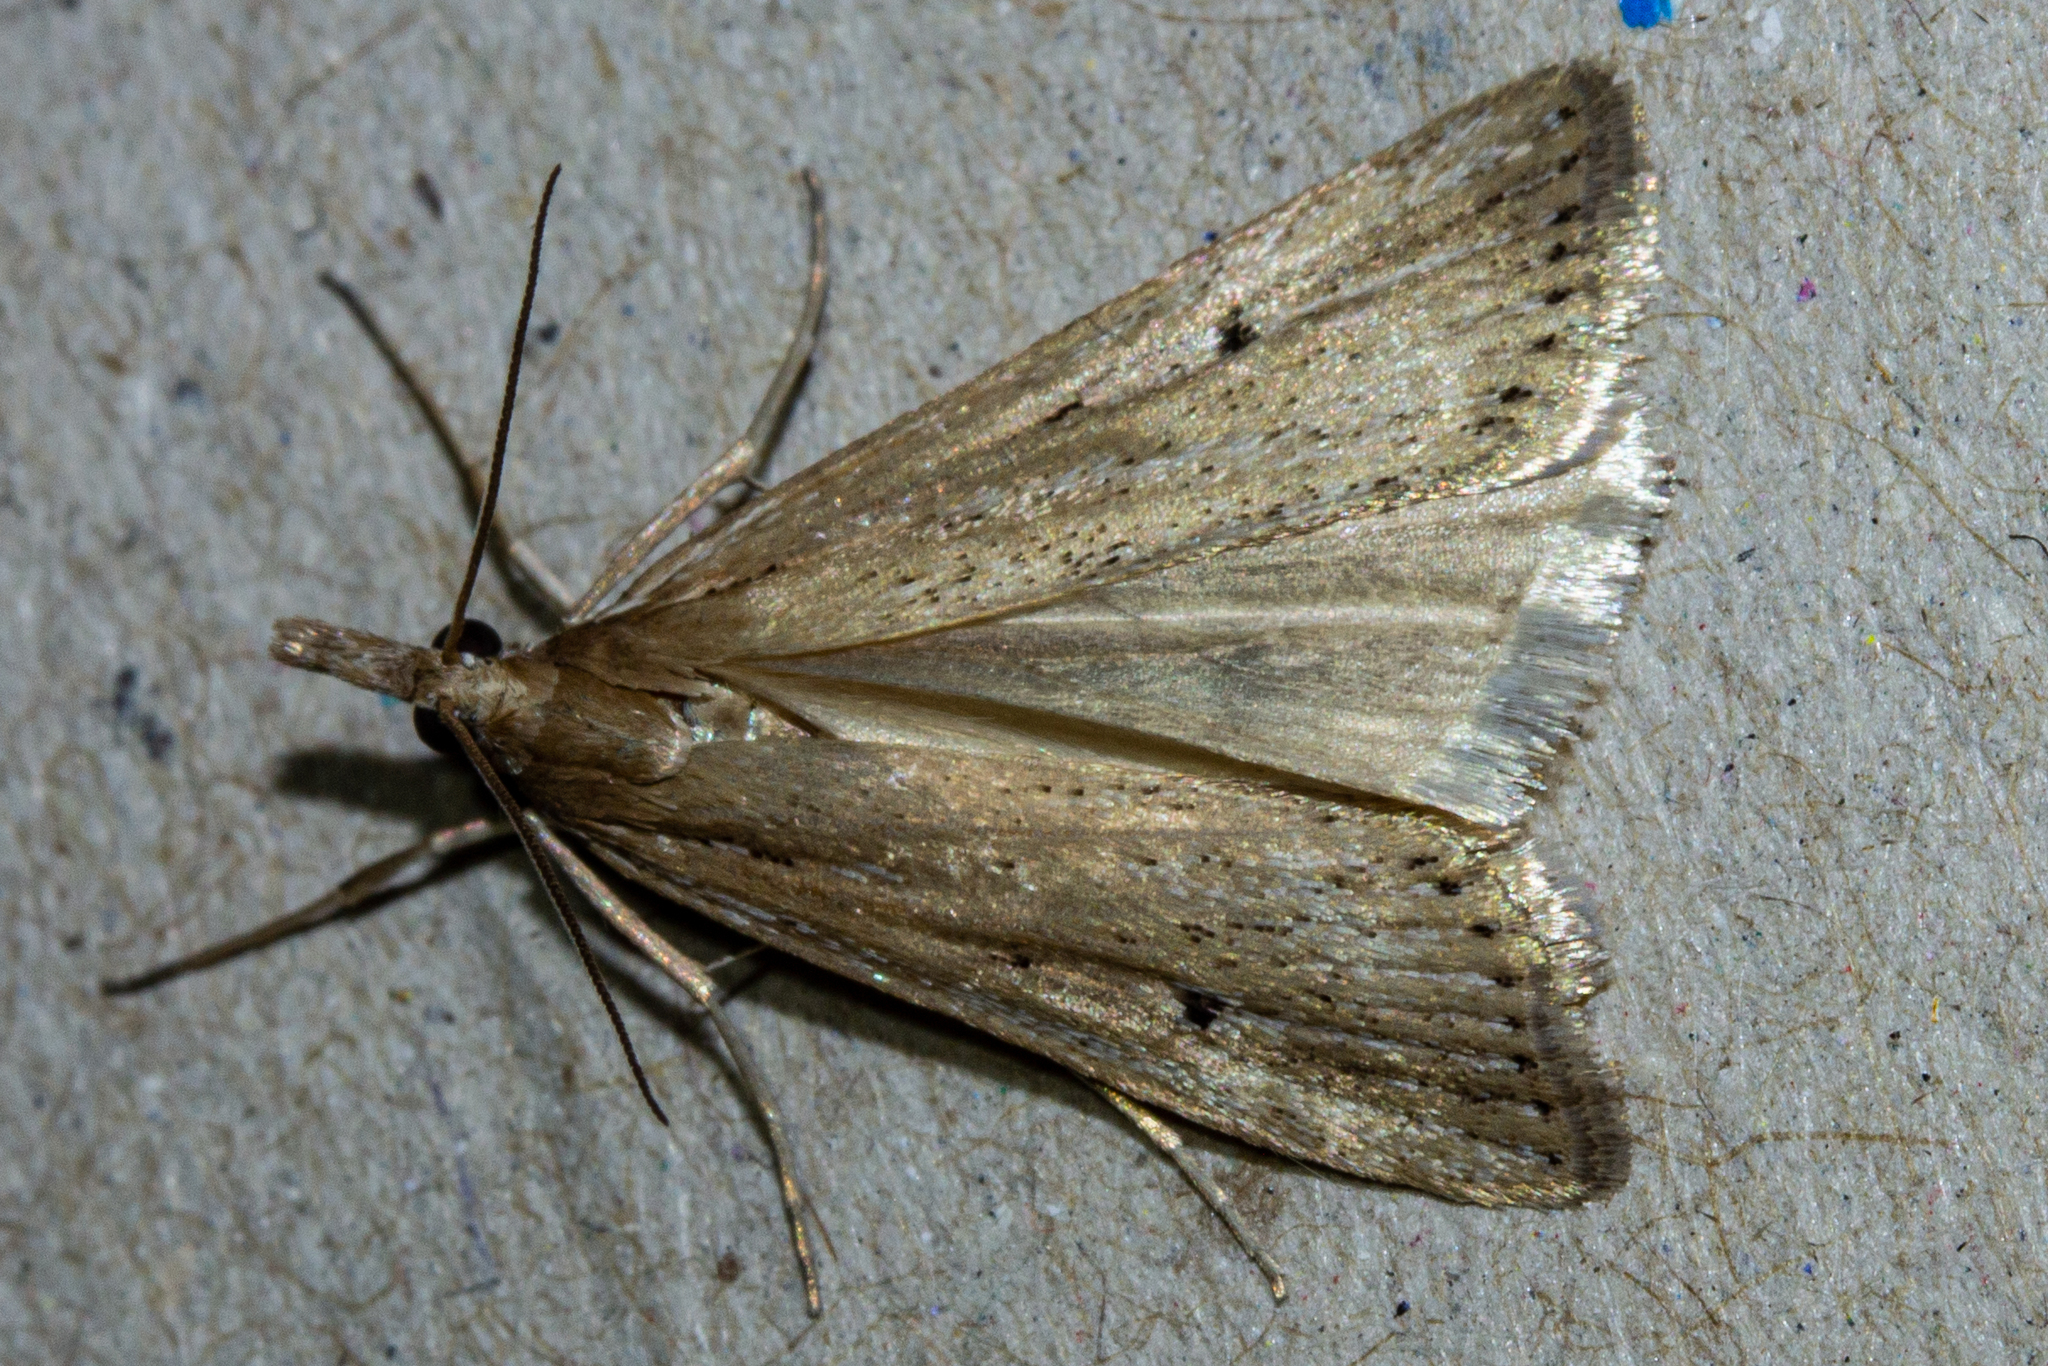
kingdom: Animalia
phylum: Arthropoda
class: Insecta
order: Lepidoptera
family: Crambidae
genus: Eudonia
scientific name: Eudonia sabulosella
